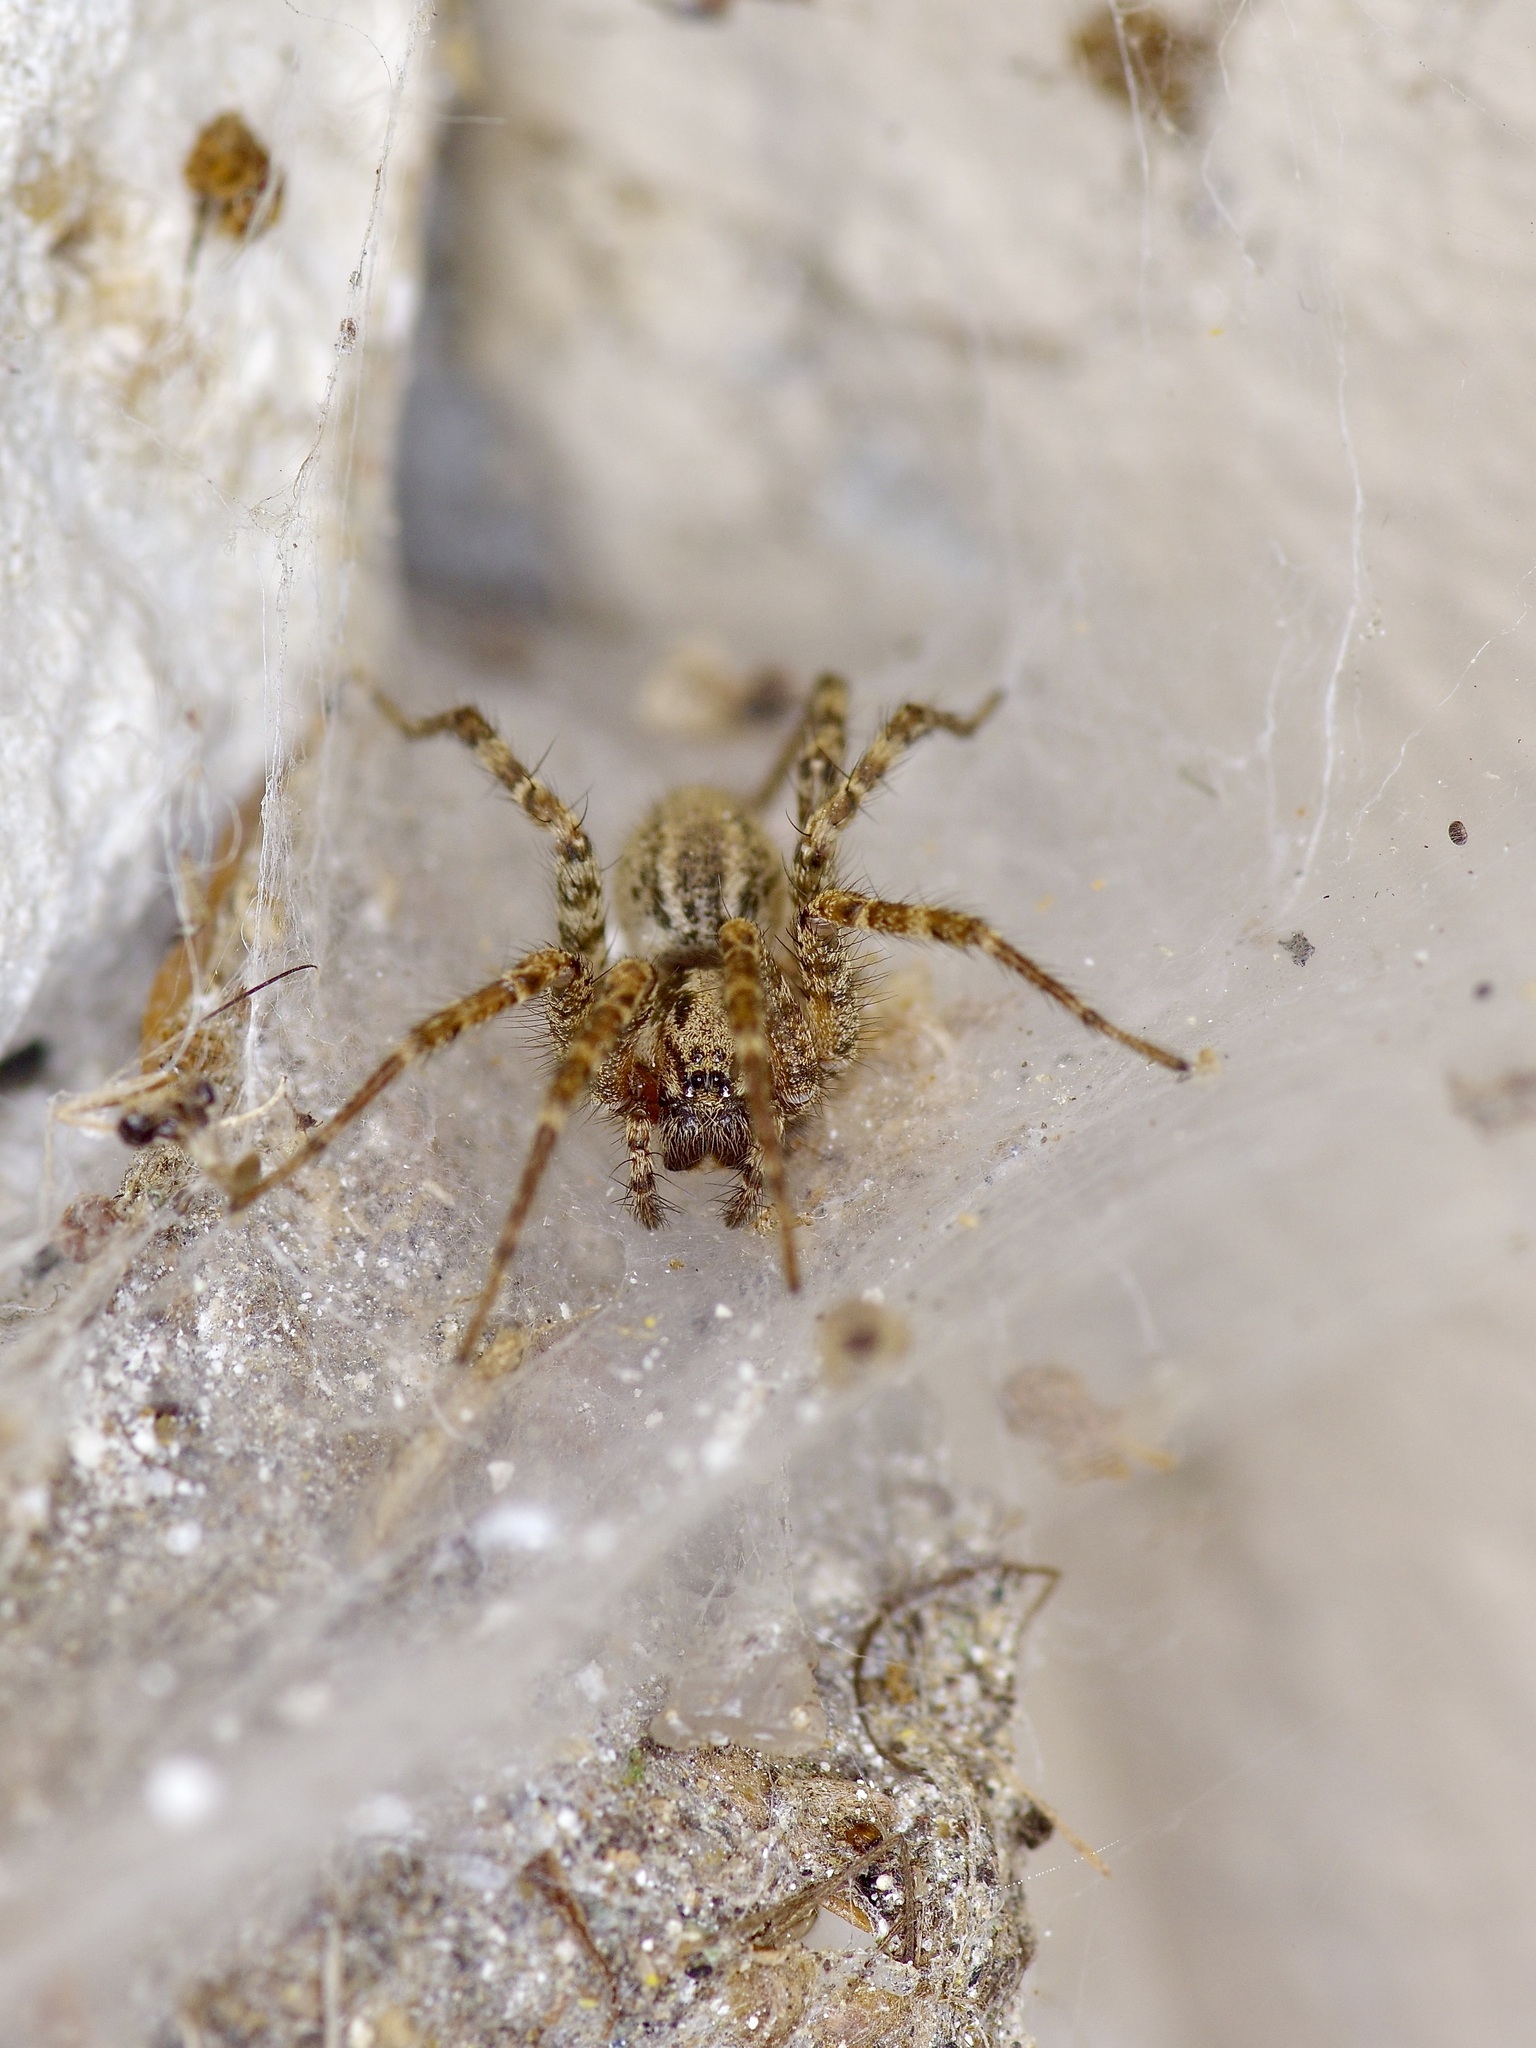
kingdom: Animalia
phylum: Arthropoda
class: Arachnida
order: Araneae
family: Agelenidae
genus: Barronopsis
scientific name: Barronopsis texana
